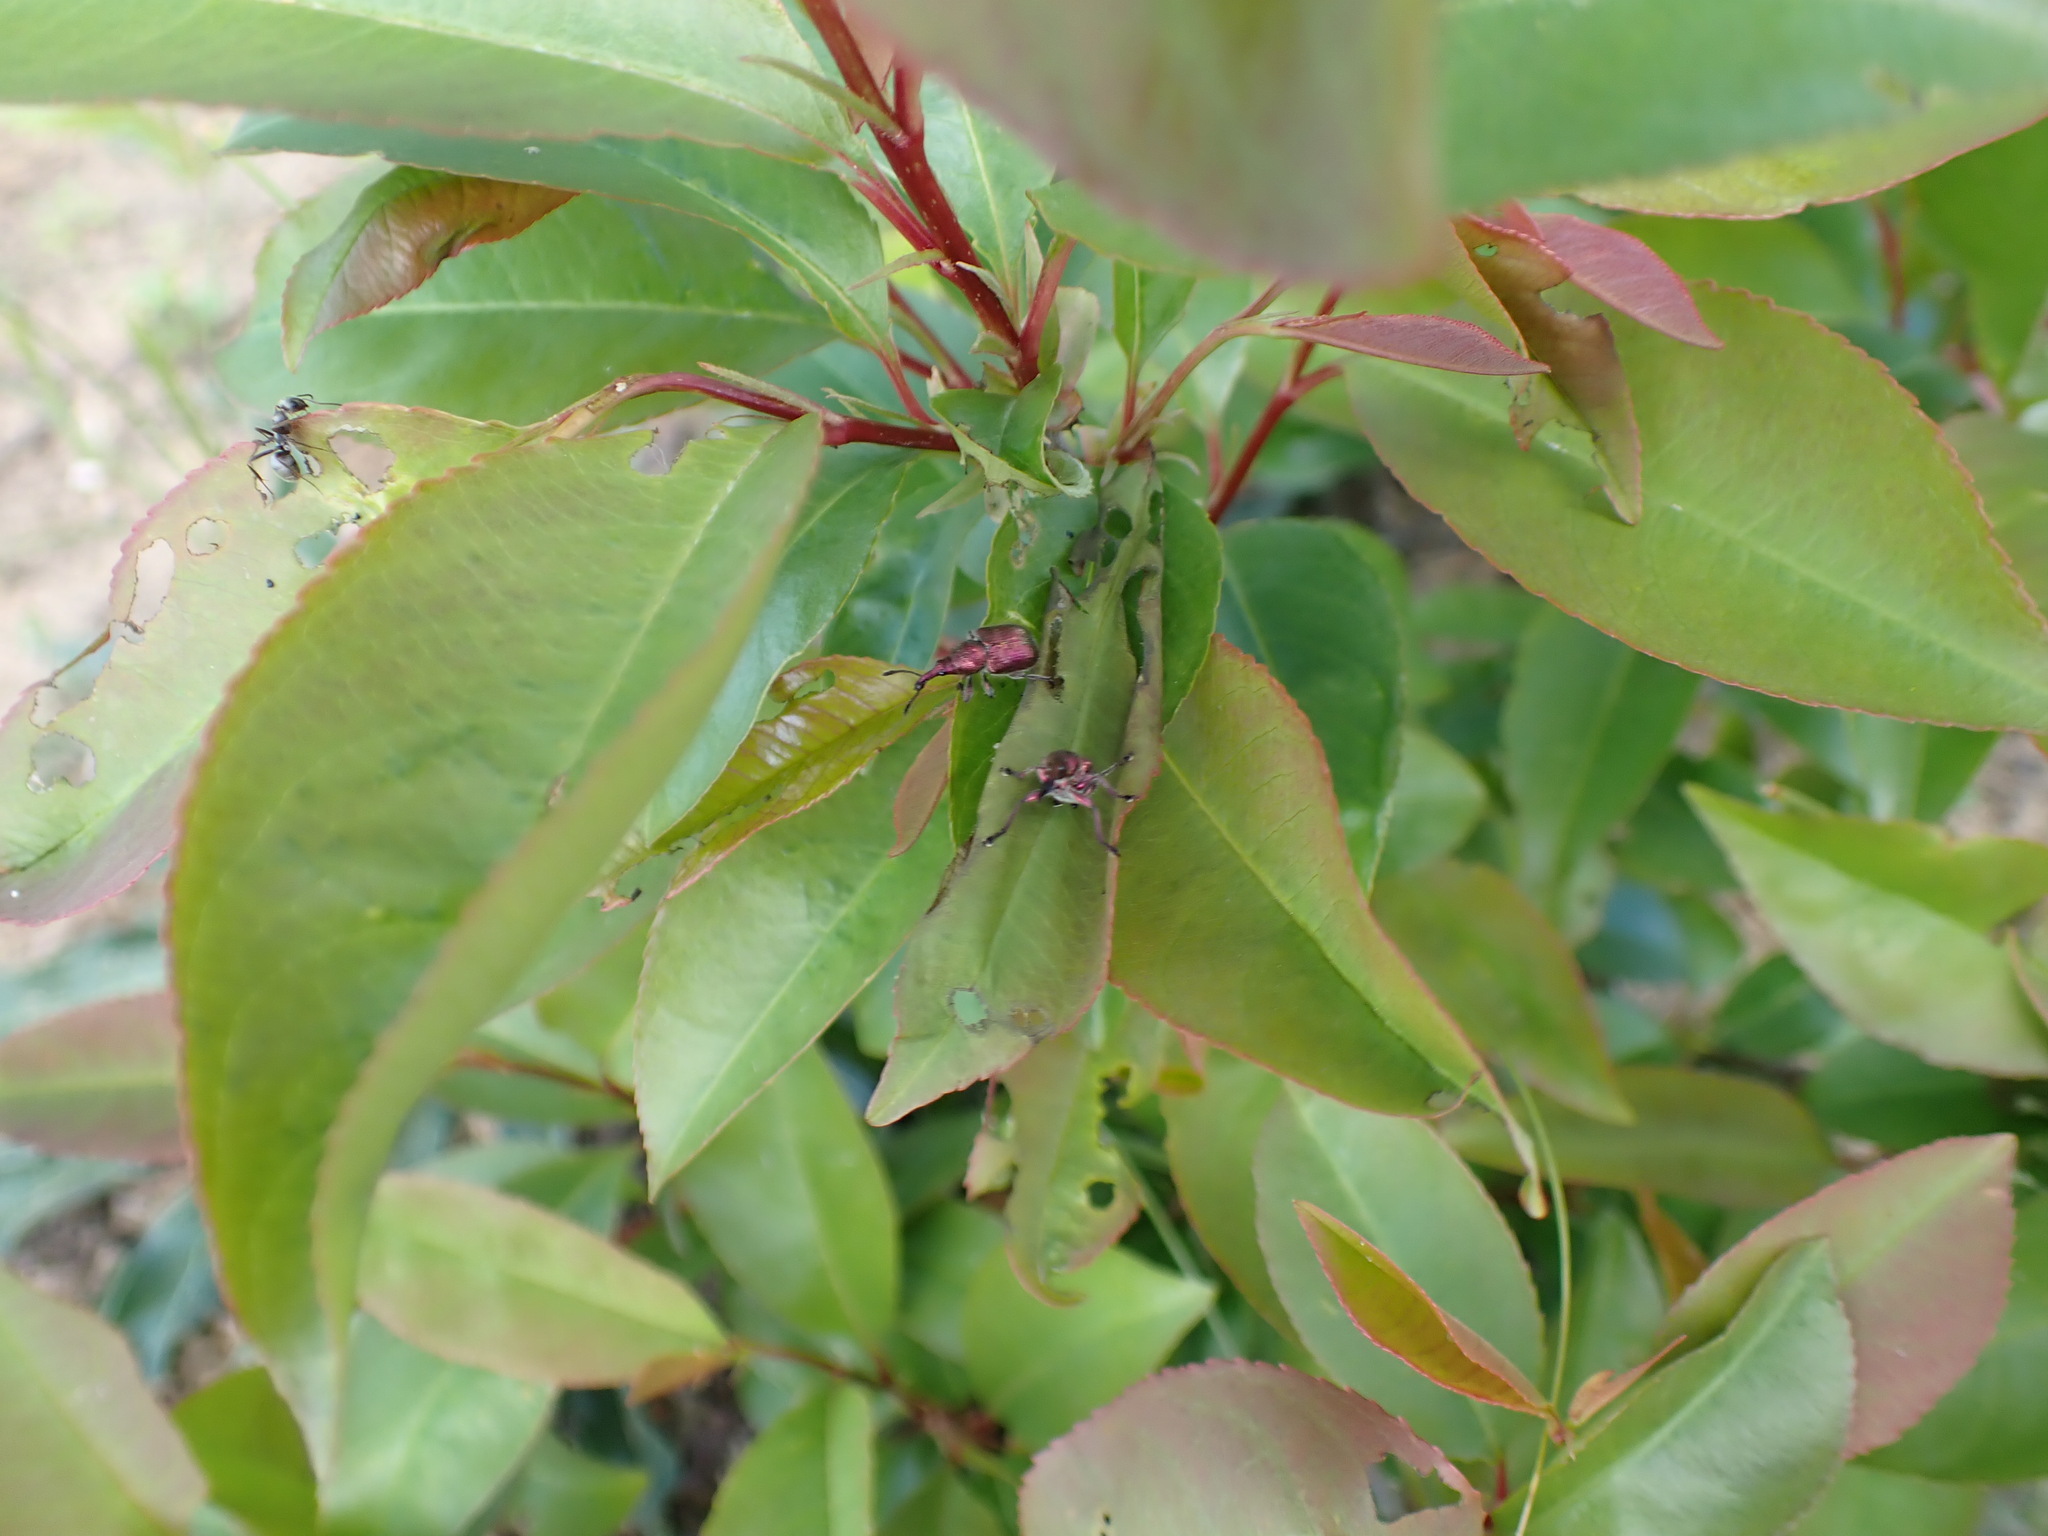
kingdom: Plantae
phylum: Tracheophyta
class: Magnoliopsida
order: Rosales
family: Rosaceae
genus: Prunus
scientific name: Prunus serotina
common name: Black cherry
